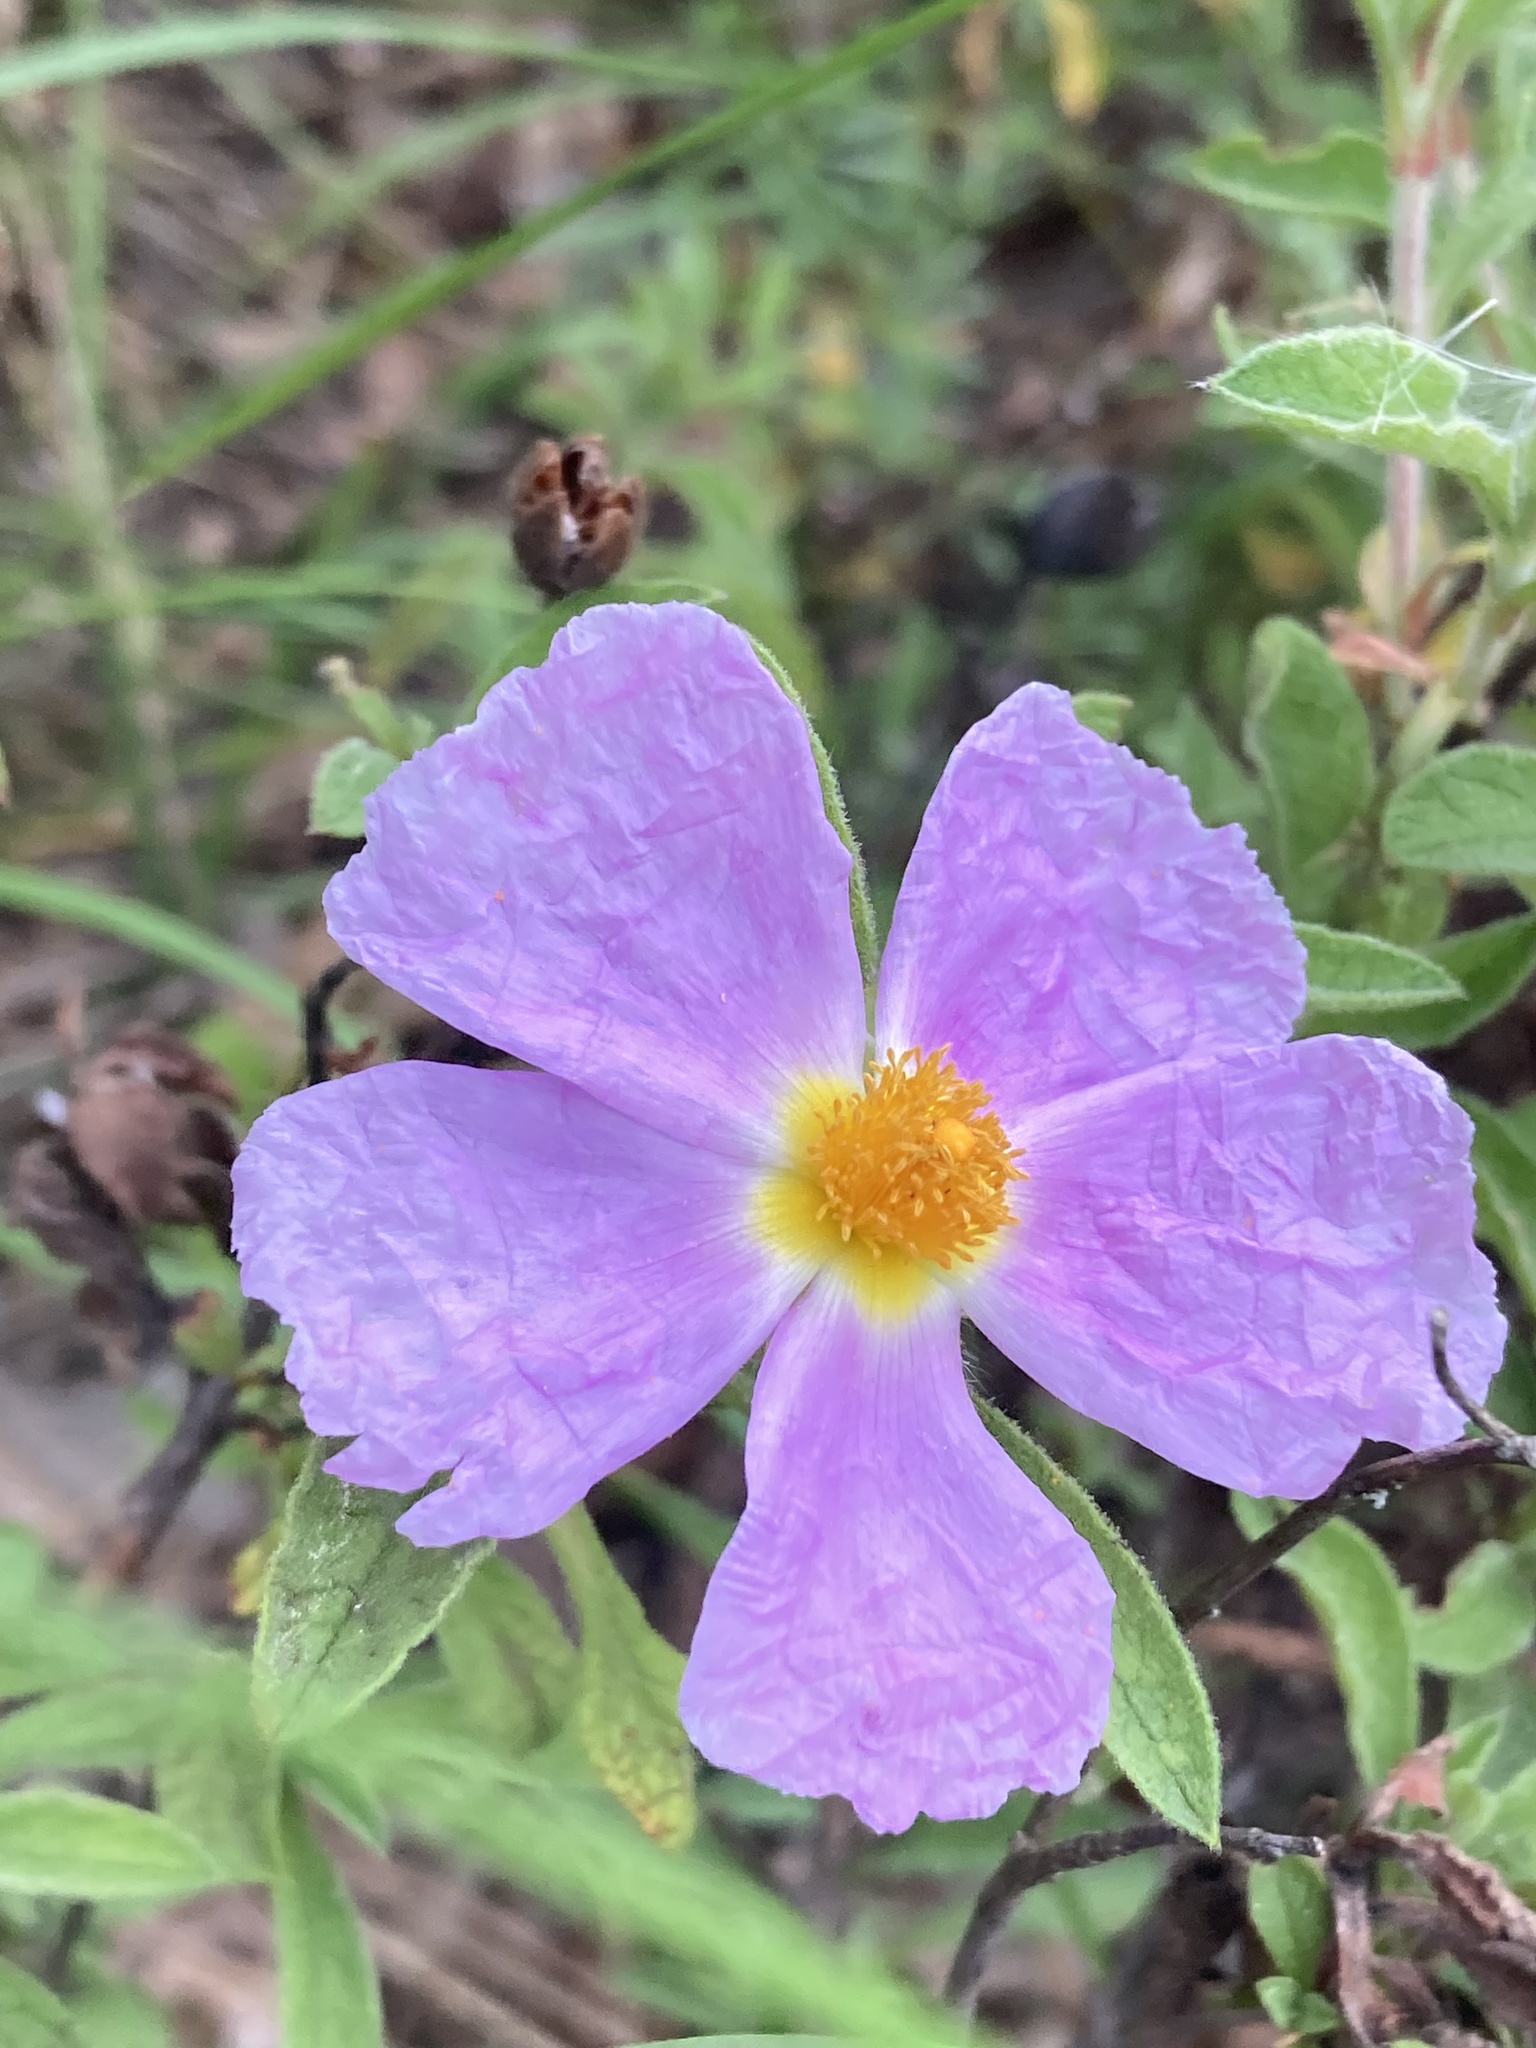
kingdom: Plantae
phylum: Tracheophyta
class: Magnoliopsida
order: Malvales
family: Cistaceae
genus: Cistus
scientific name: Cistus creticus
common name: Cretan rockrose
